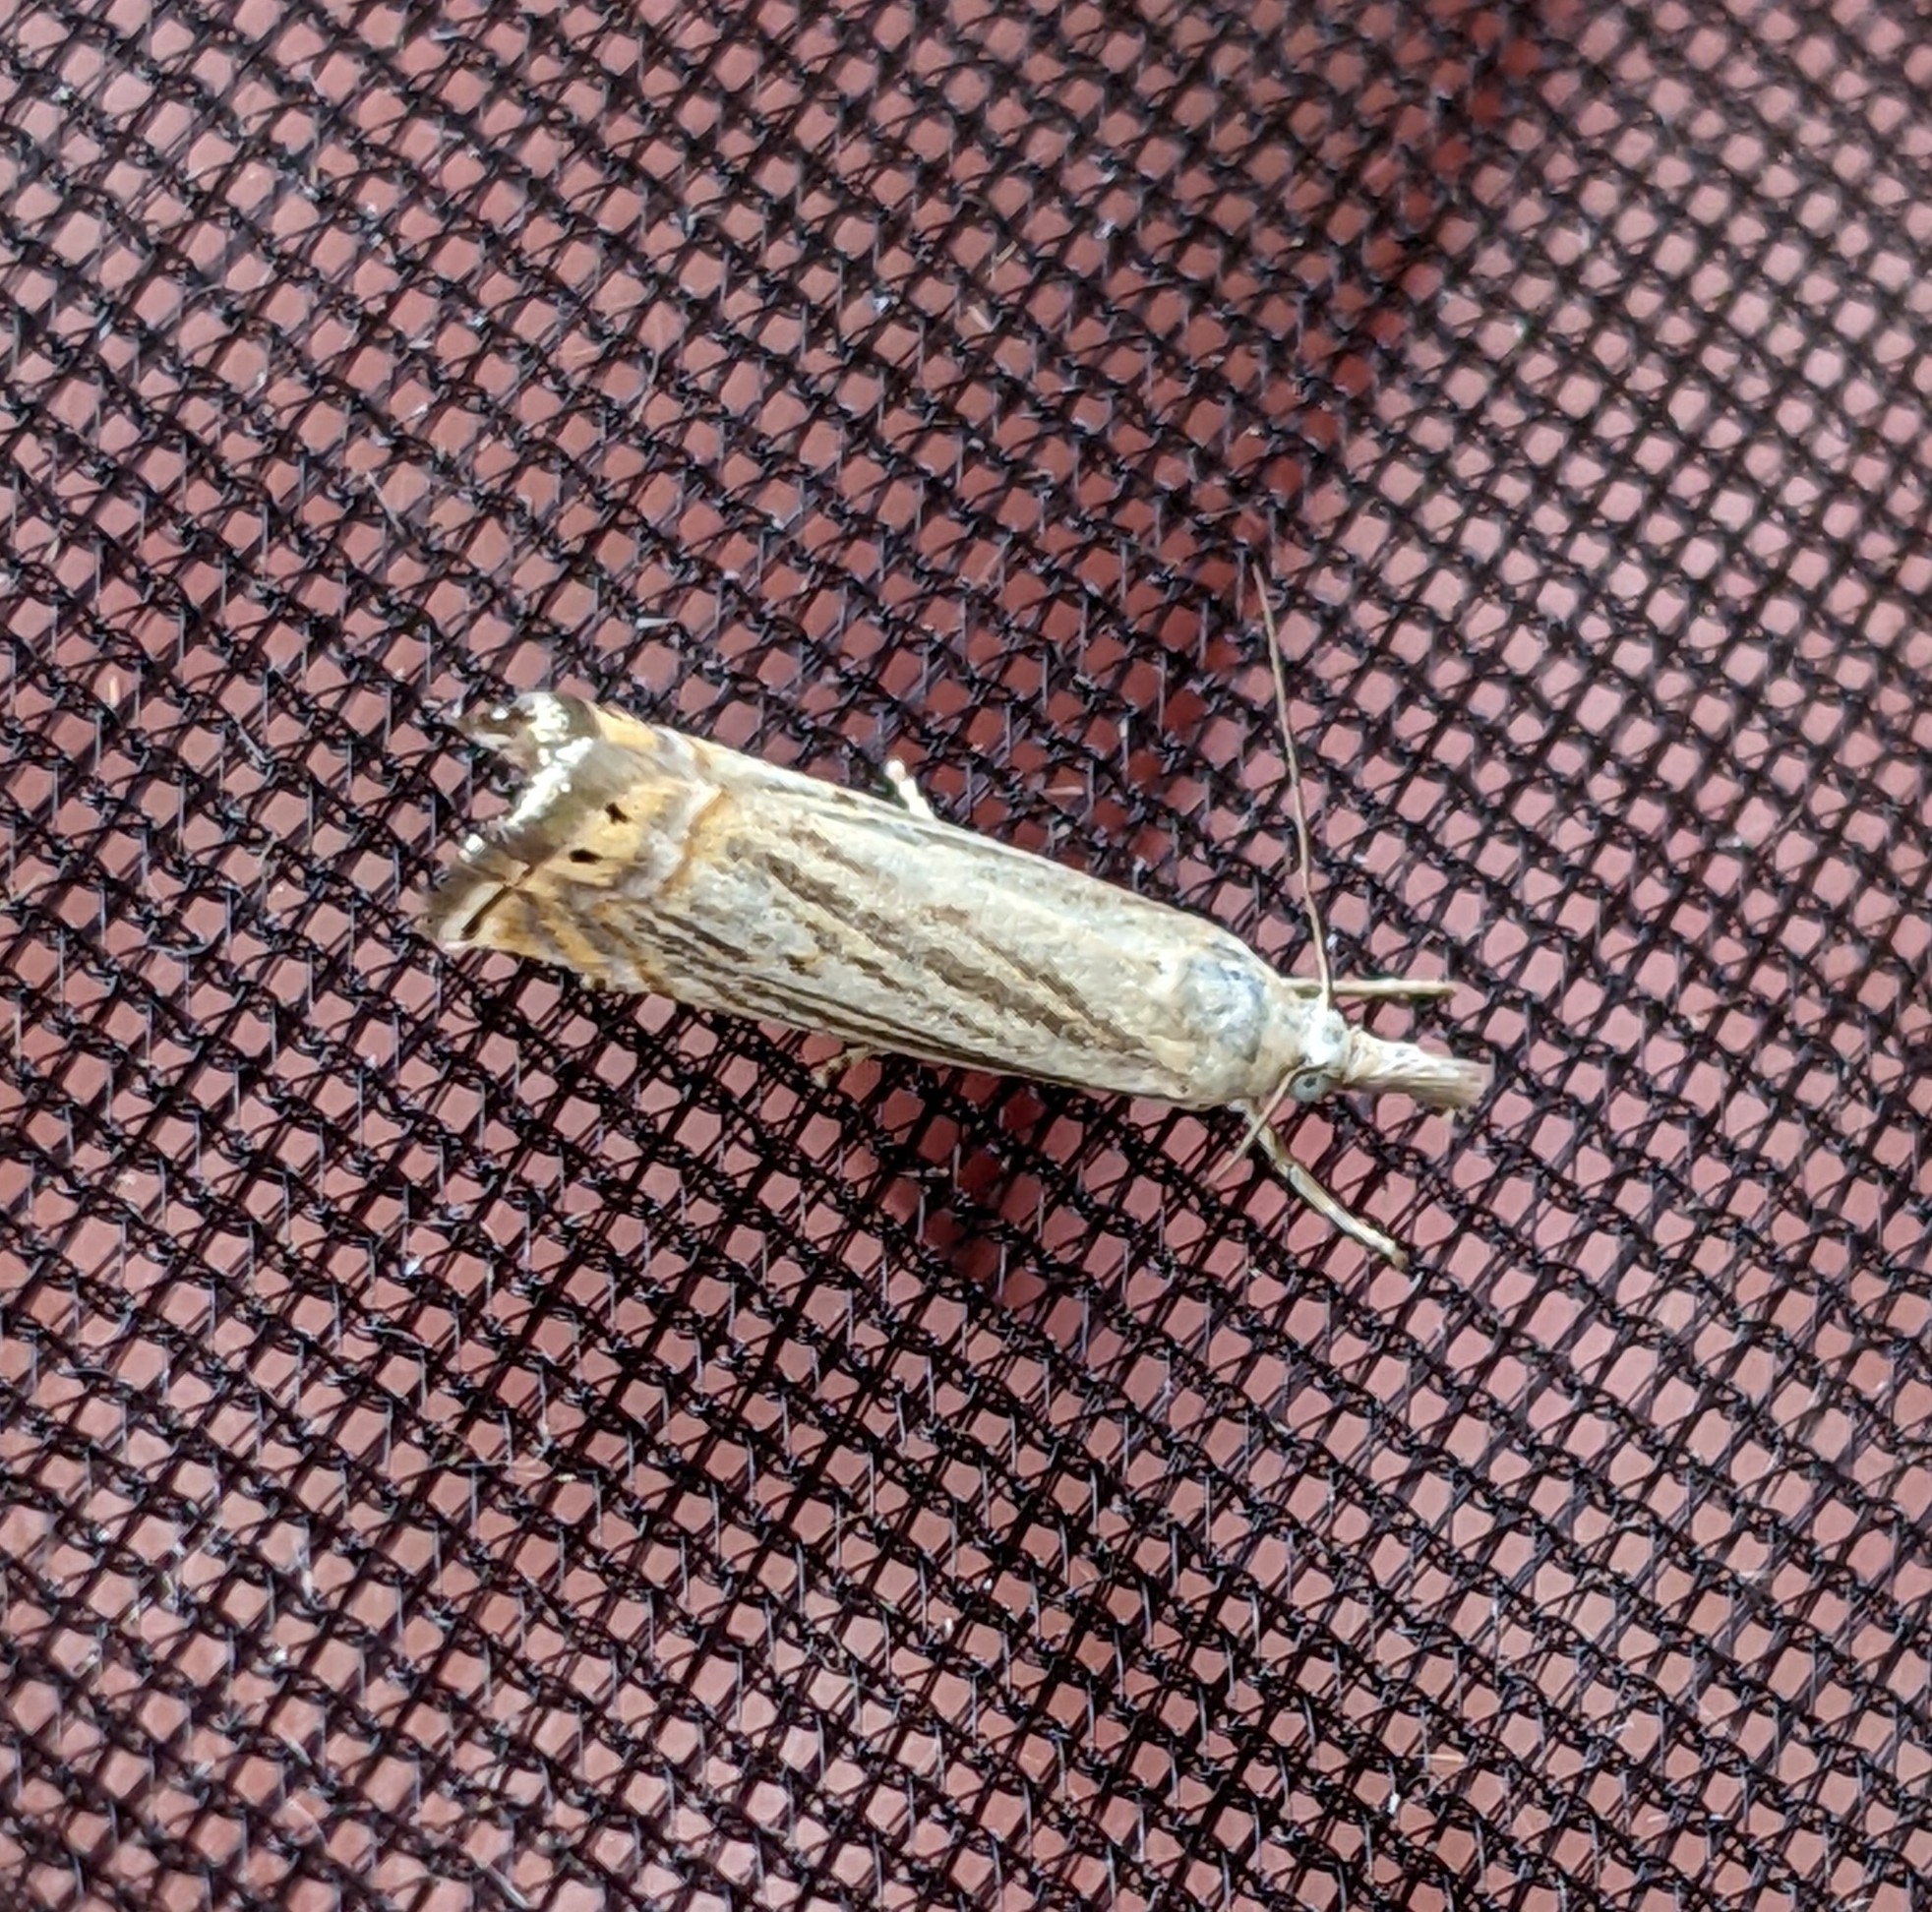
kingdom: Animalia
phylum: Arthropoda
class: Insecta
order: Lepidoptera
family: Crambidae
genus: Chrysoteuchia
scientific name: Chrysoteuchia topiarius
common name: Topiary grass-veneer
